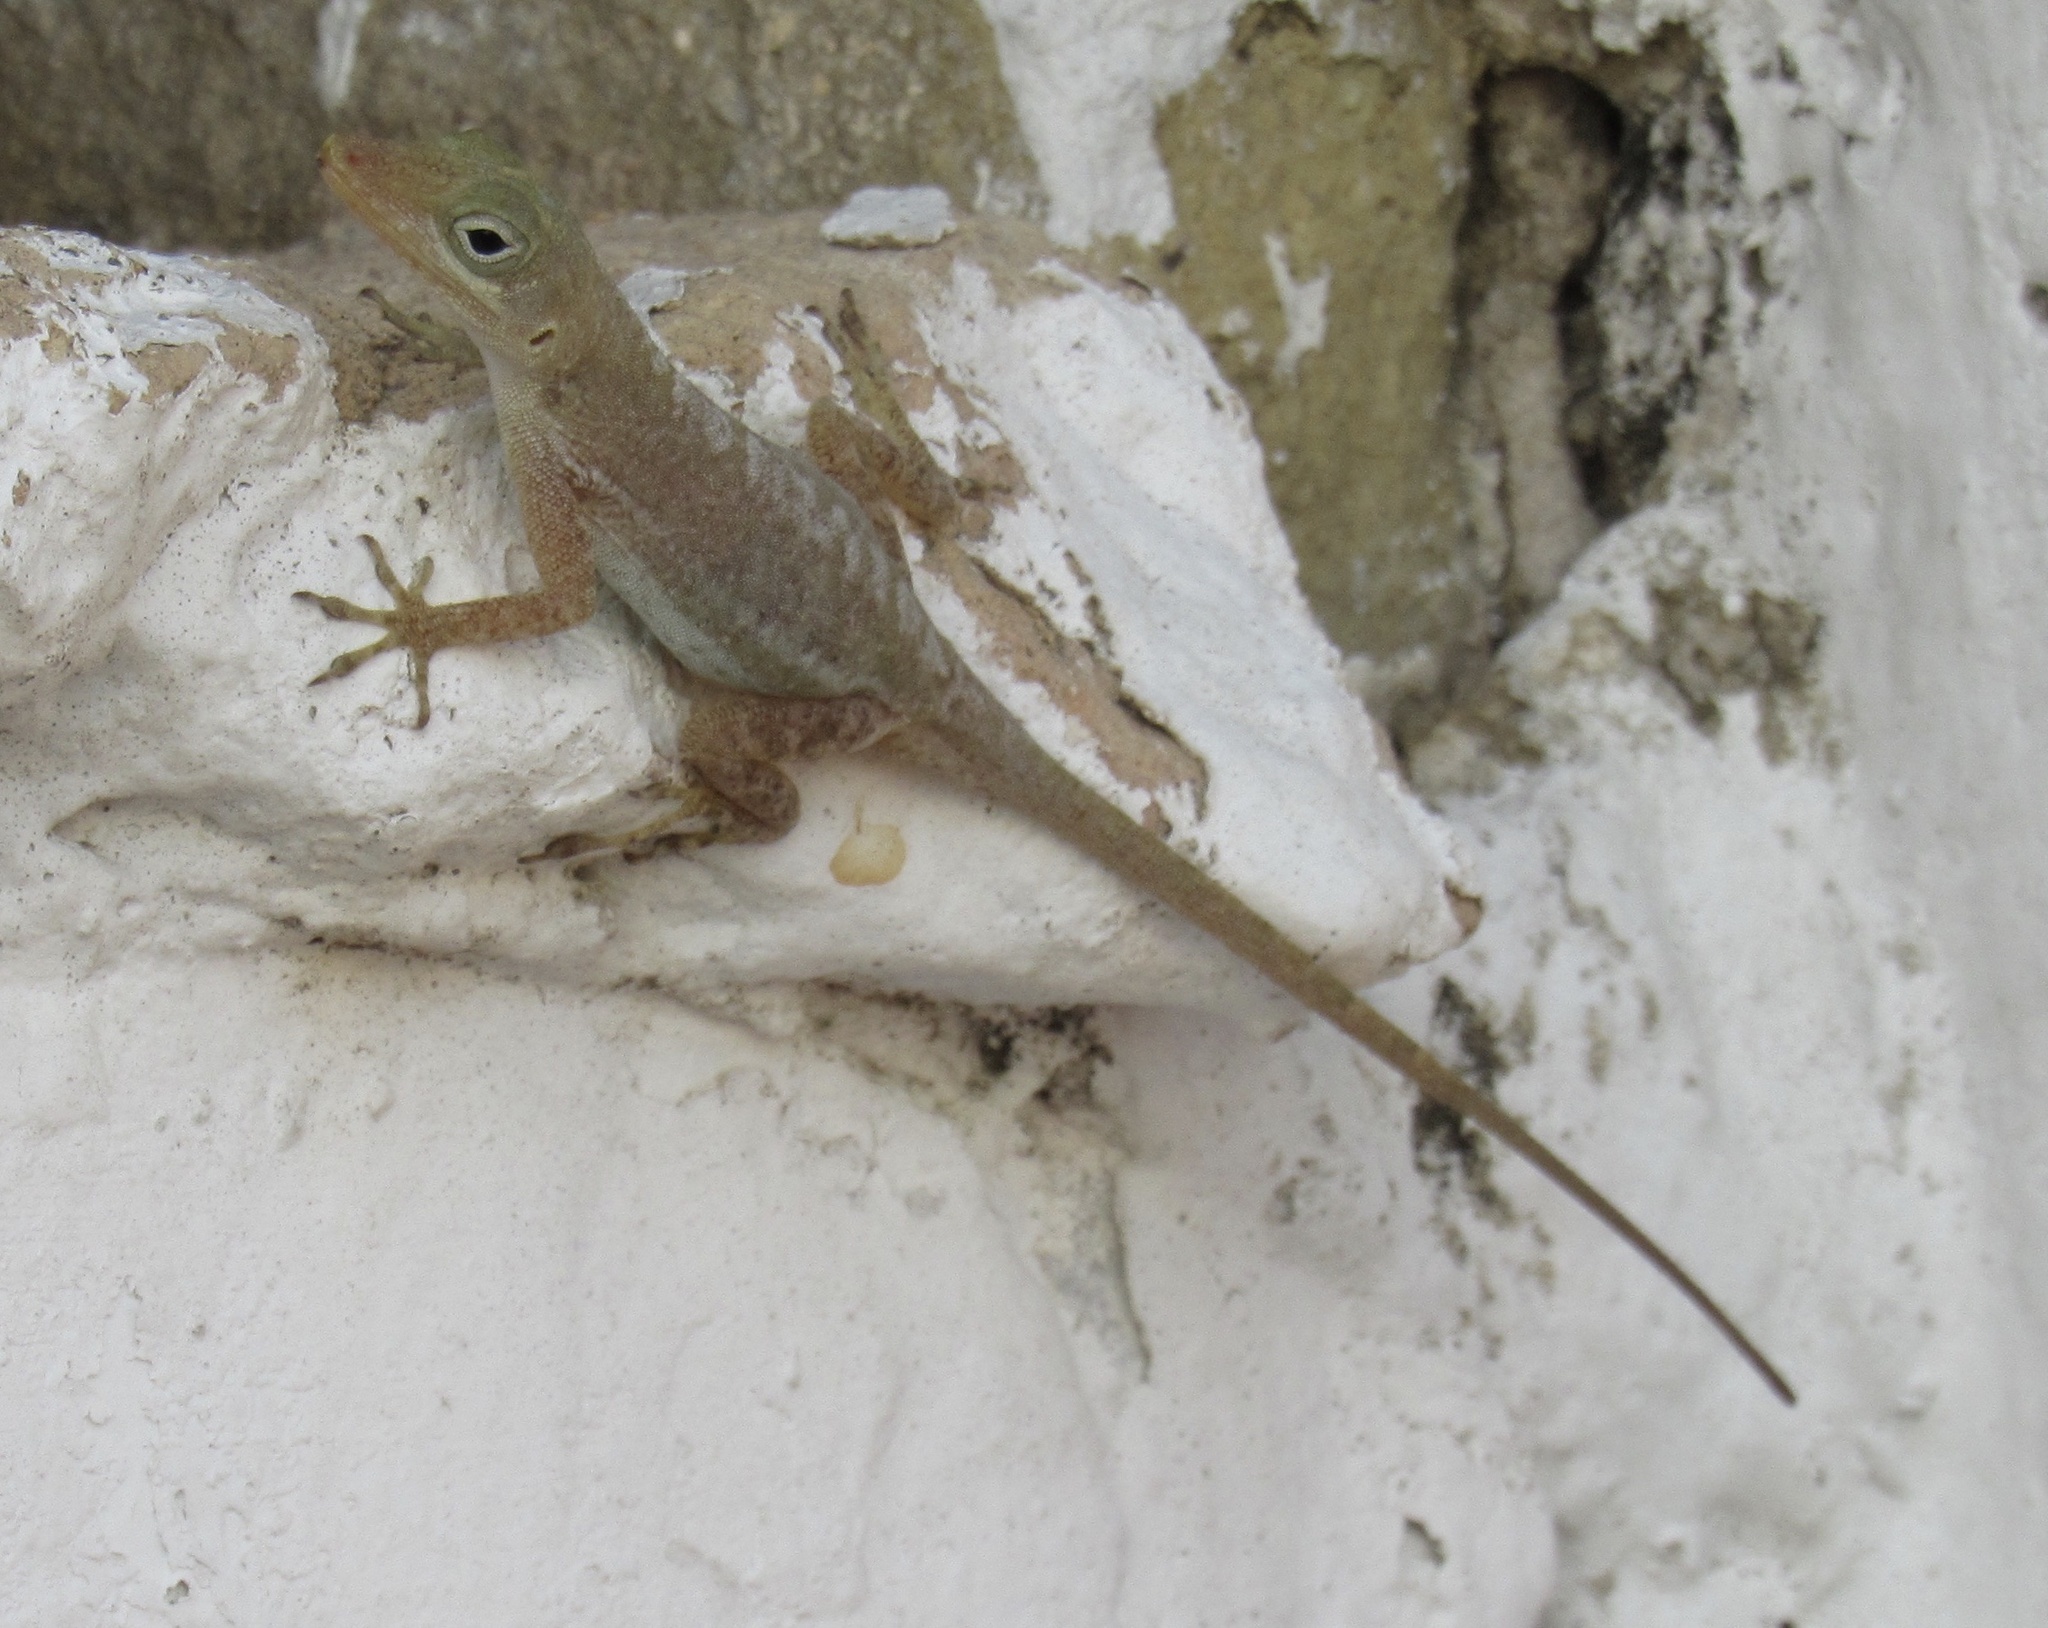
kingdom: Animalia
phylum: Chordata
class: Squamata
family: Dactyloidae
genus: Anolis
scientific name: Anolis acutus
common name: Saint croix's anole
